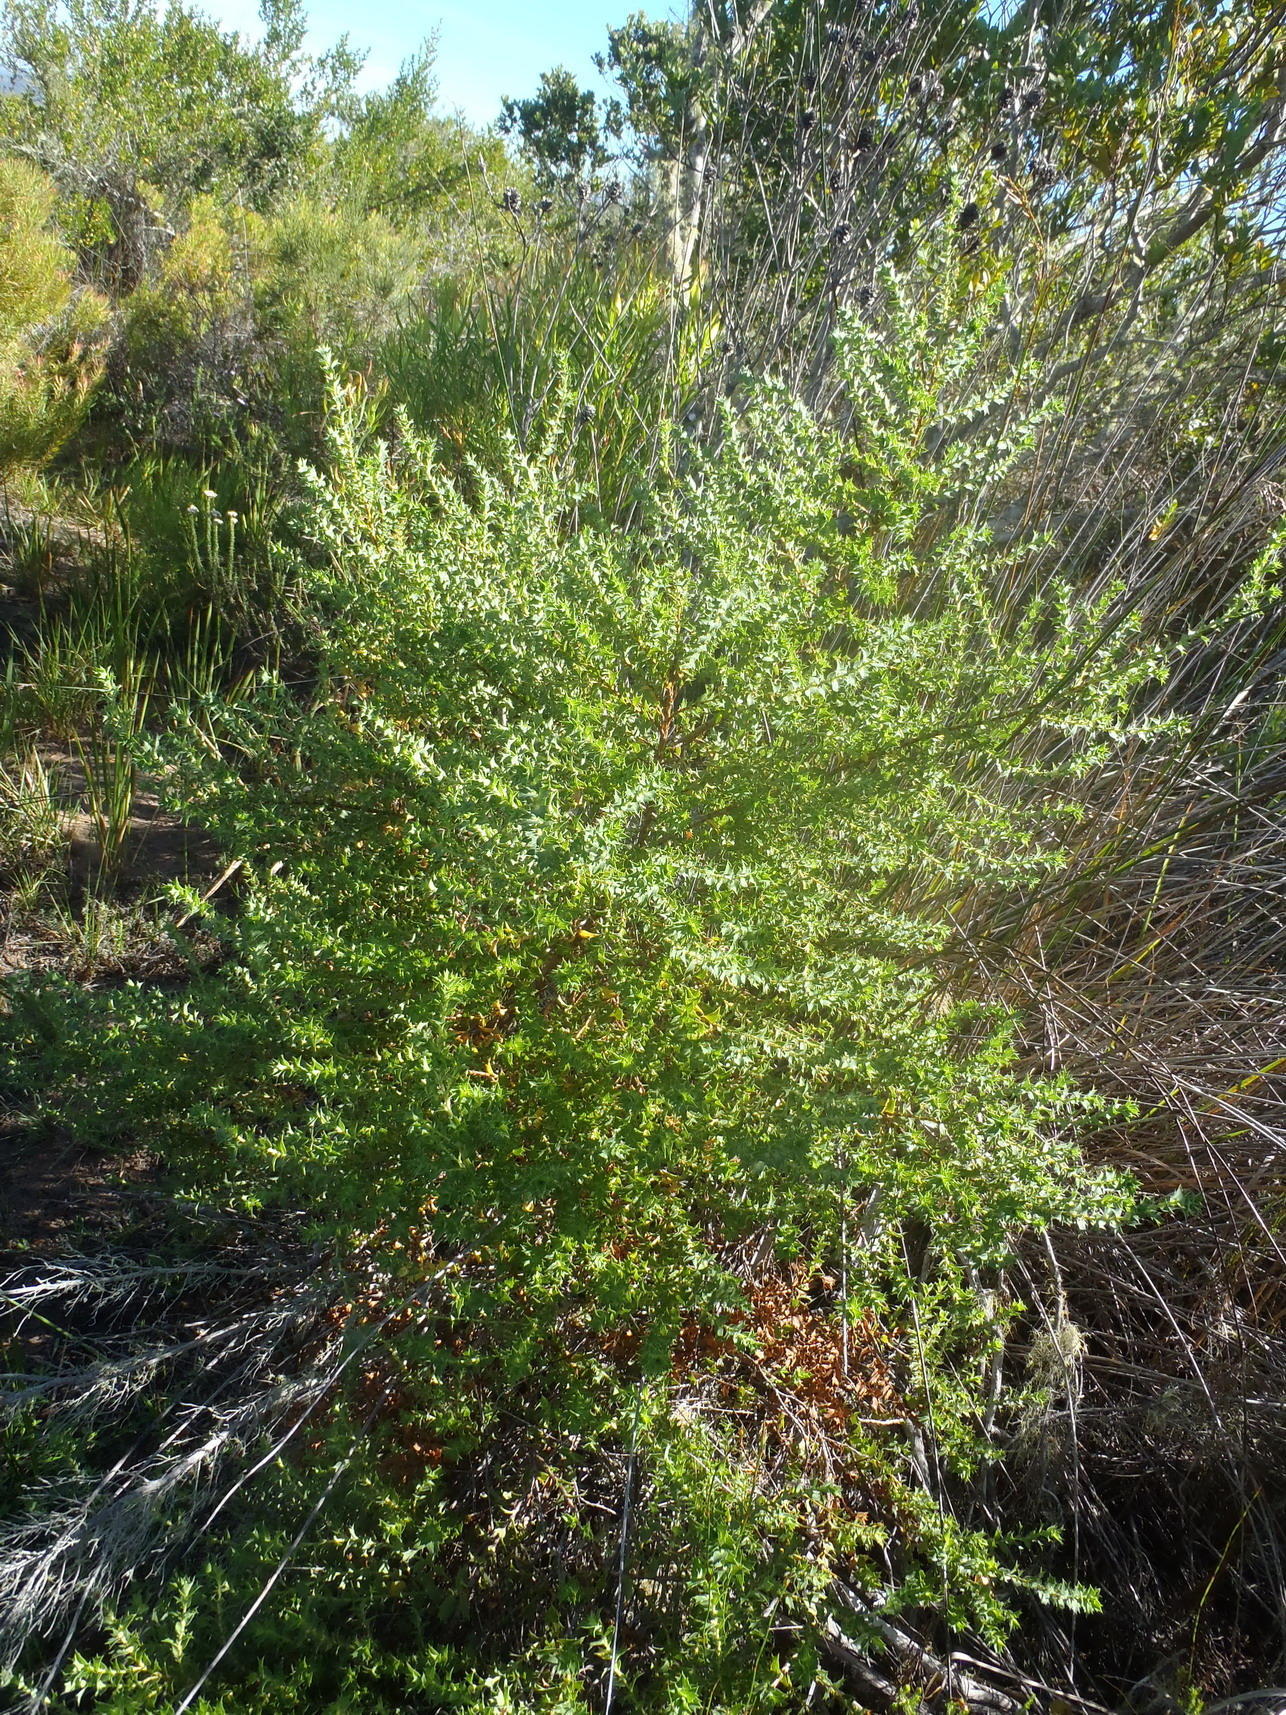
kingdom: Plantae
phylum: Tracheophyta
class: Magnoliopsida
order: Rosales
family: Rosaceae
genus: Cliffortia
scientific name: Cliffortia ilicifolia
